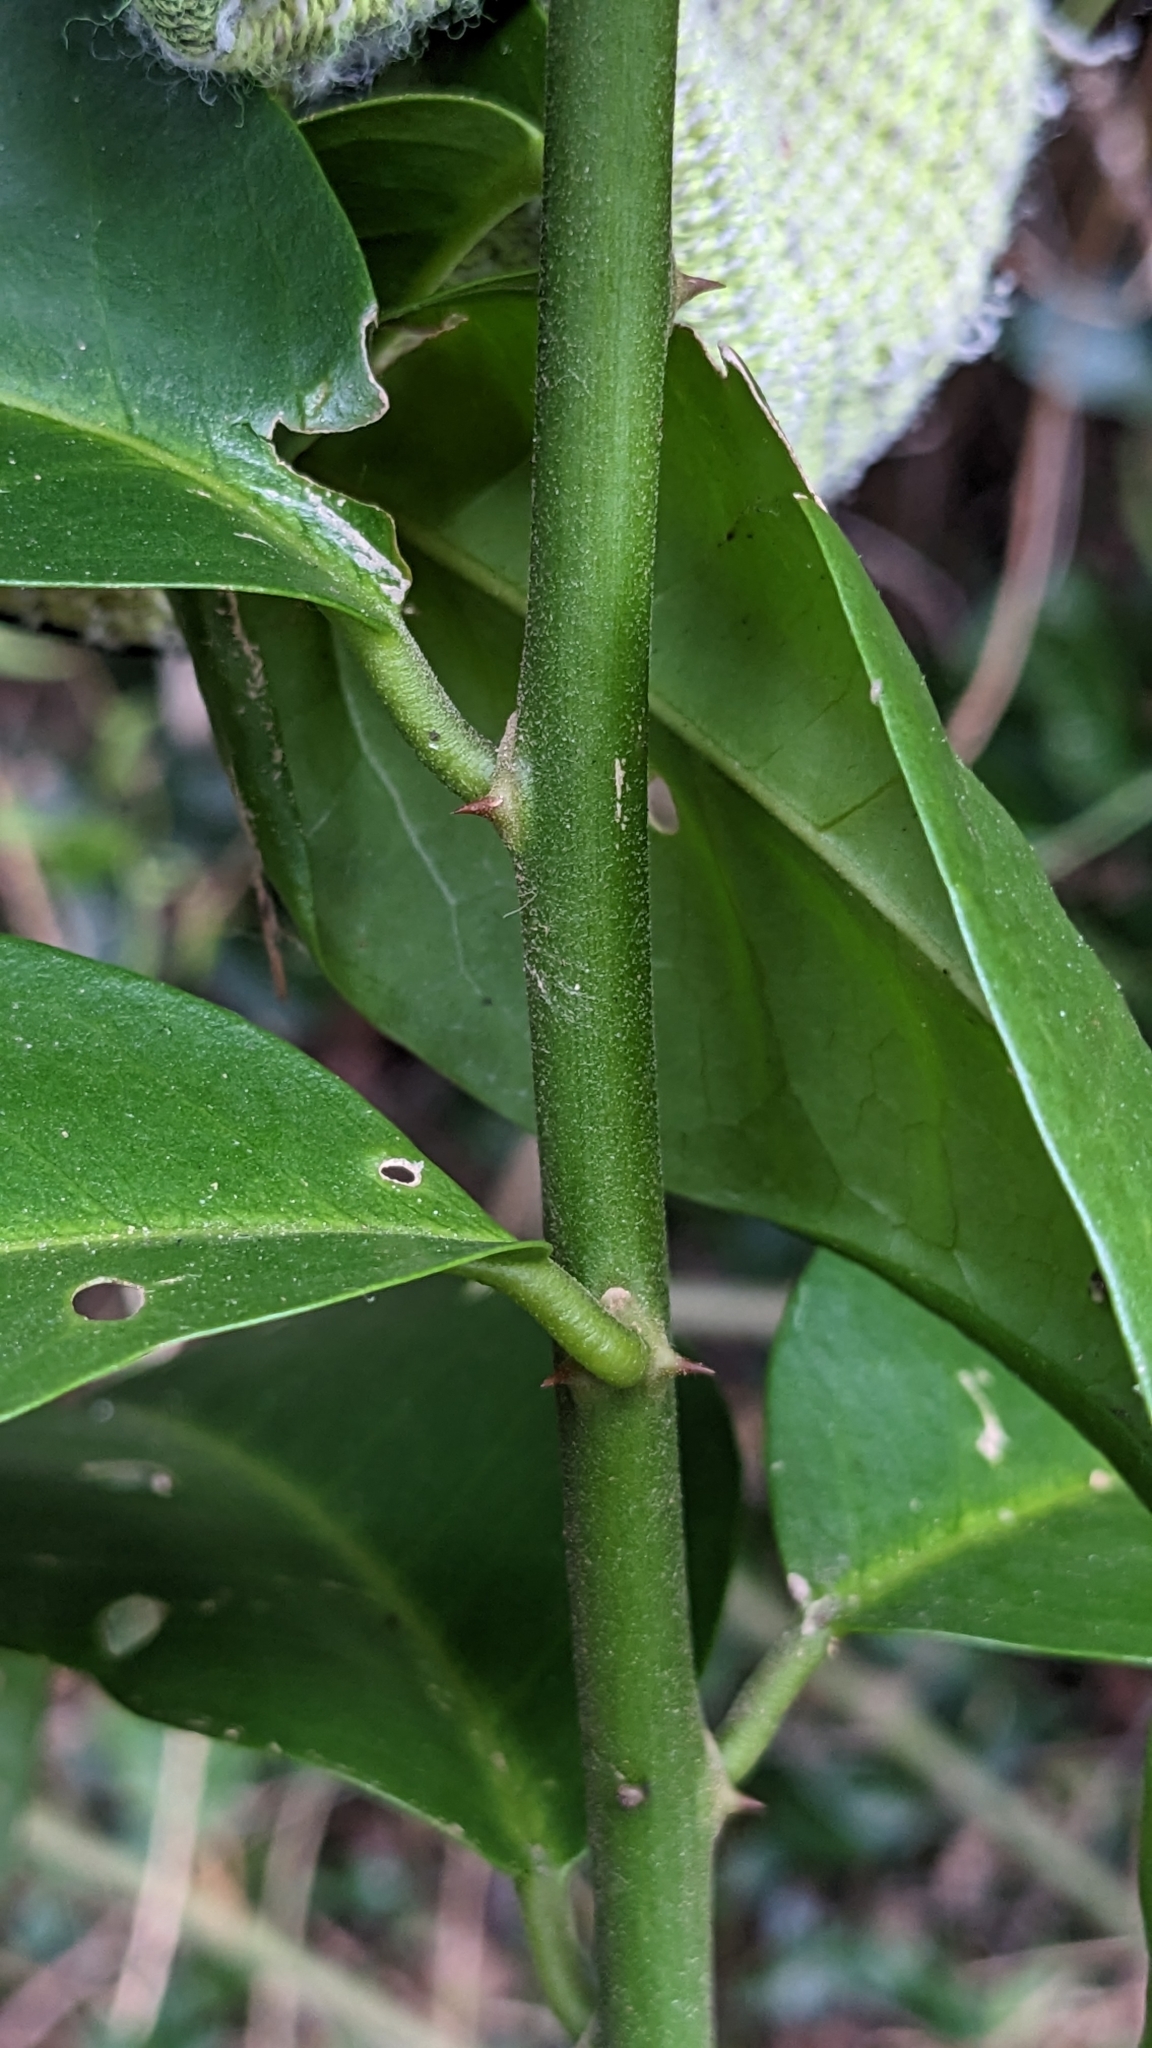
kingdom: Plantae
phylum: Tracheophyta
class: Magnoliopsida
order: Brassicales
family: Capparaceae
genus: Capparis
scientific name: Capparis arborea
